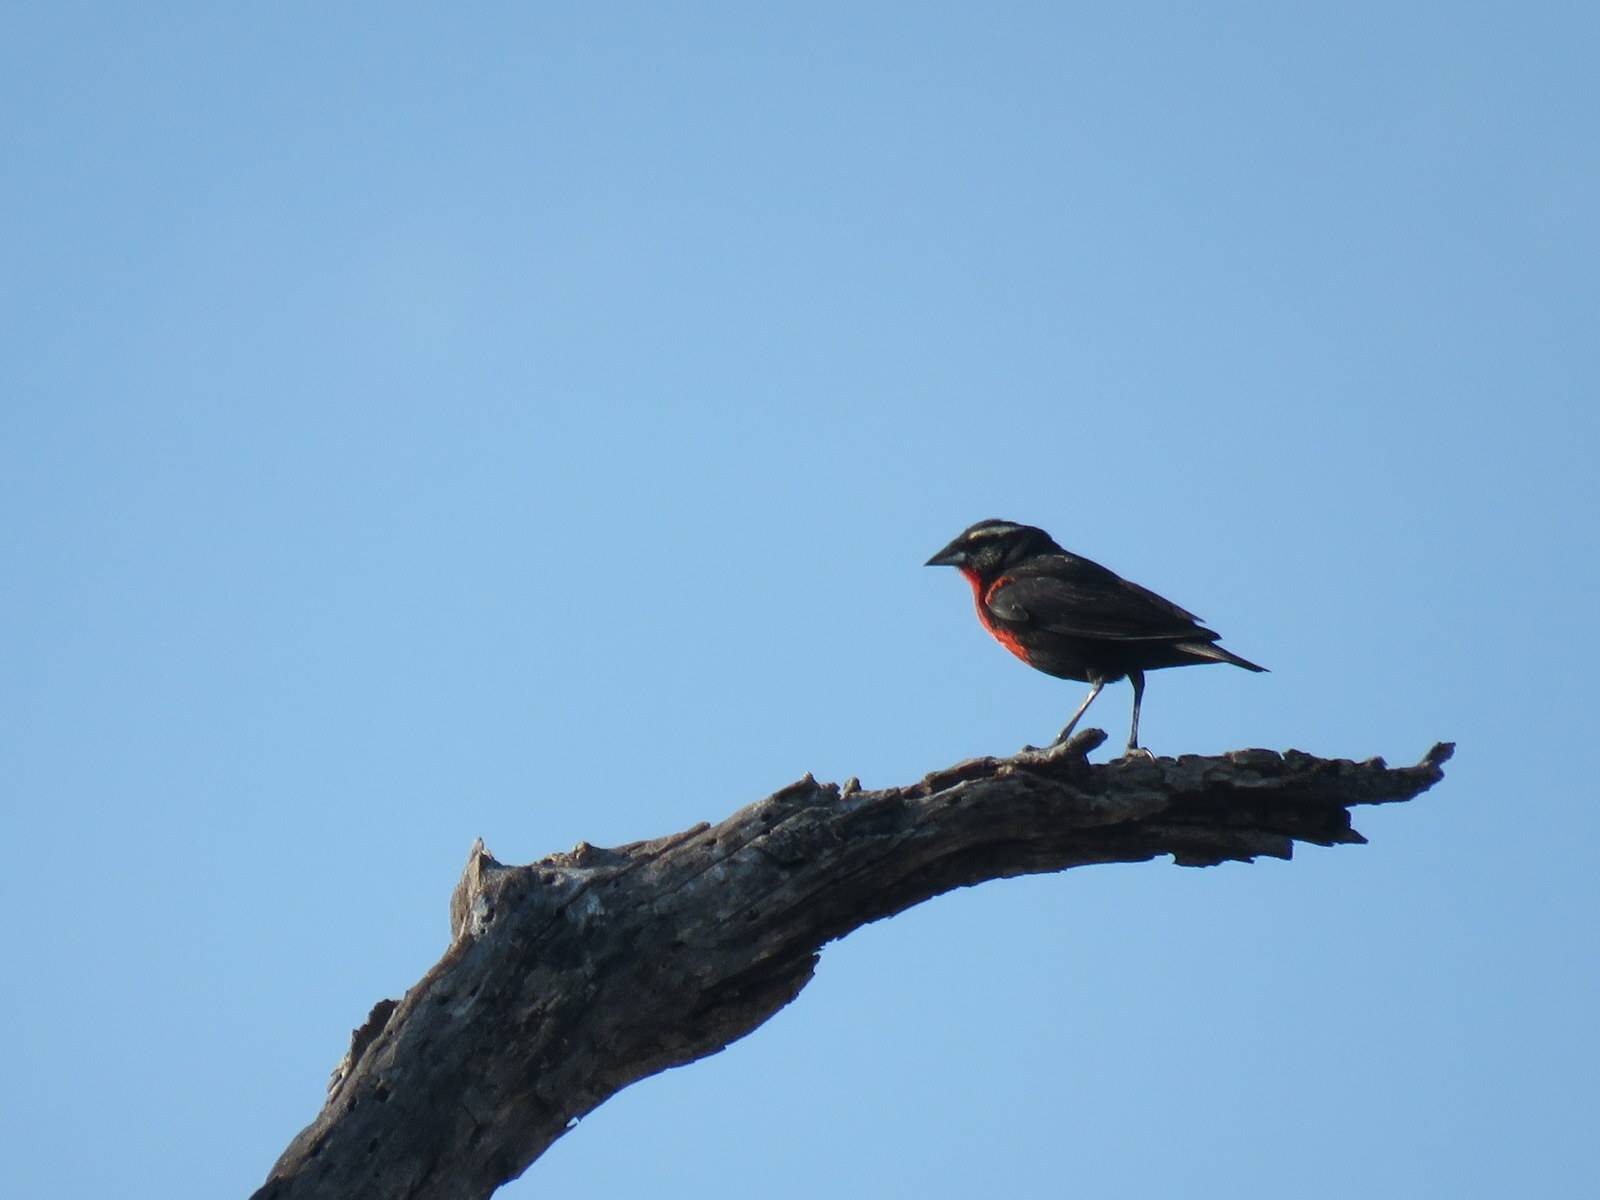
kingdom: Animalia
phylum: Chordata
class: Aves
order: Passeriformes
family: Icteridae
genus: Sturnella
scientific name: Sturnella superciliaris
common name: White-browed blackbird
